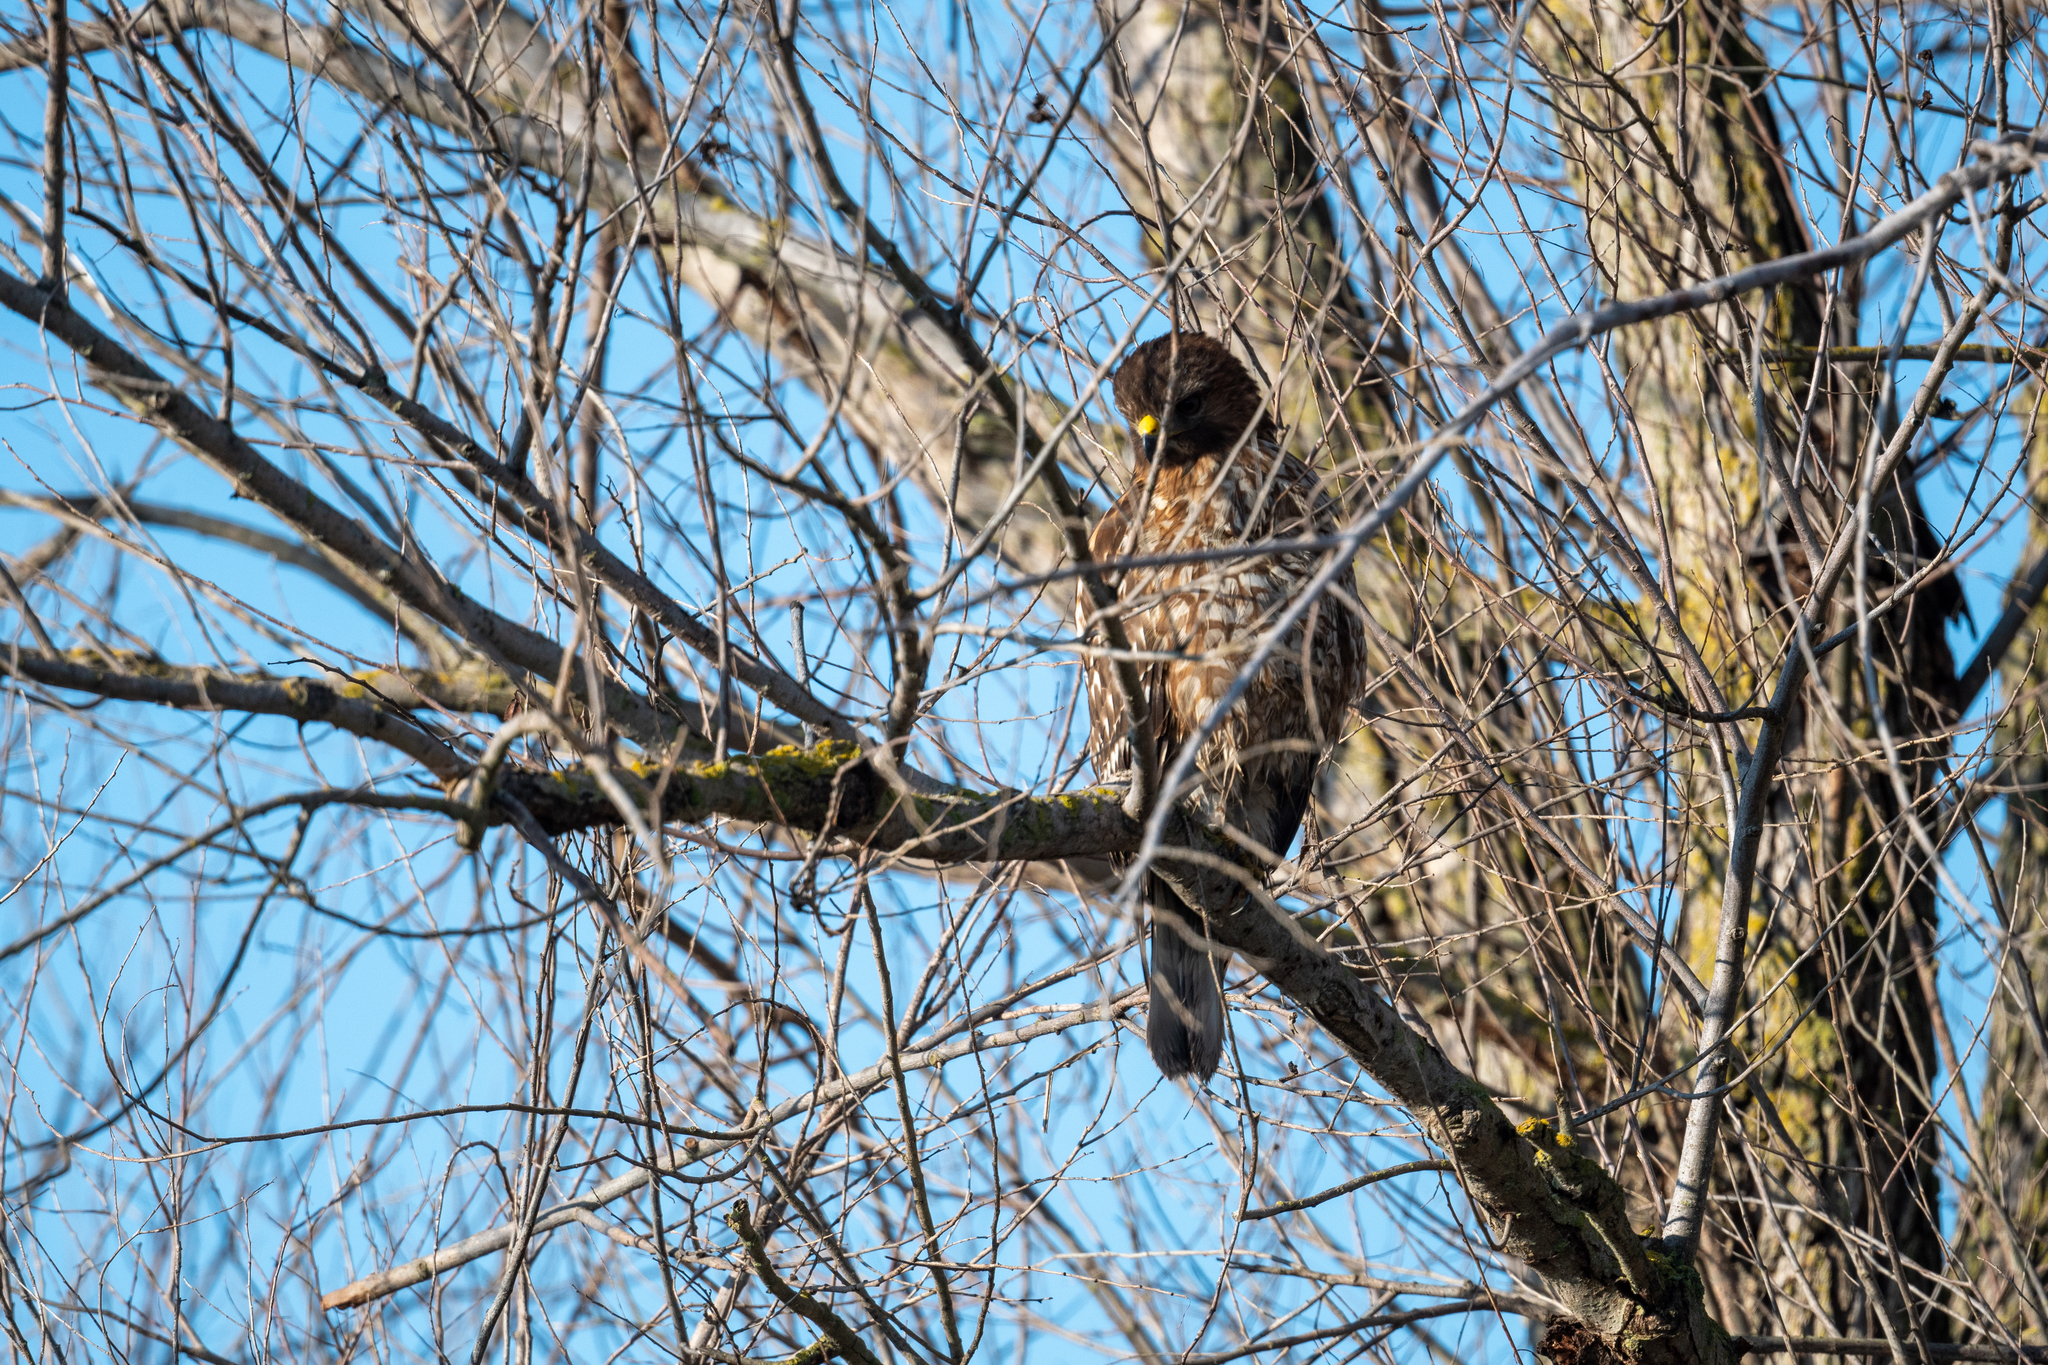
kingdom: Animalia
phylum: Chordata
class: Aves
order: Accipitriformes
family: Accipitridae
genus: Buteo
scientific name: Buteo lineatus
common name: Red-shouldered hawk
